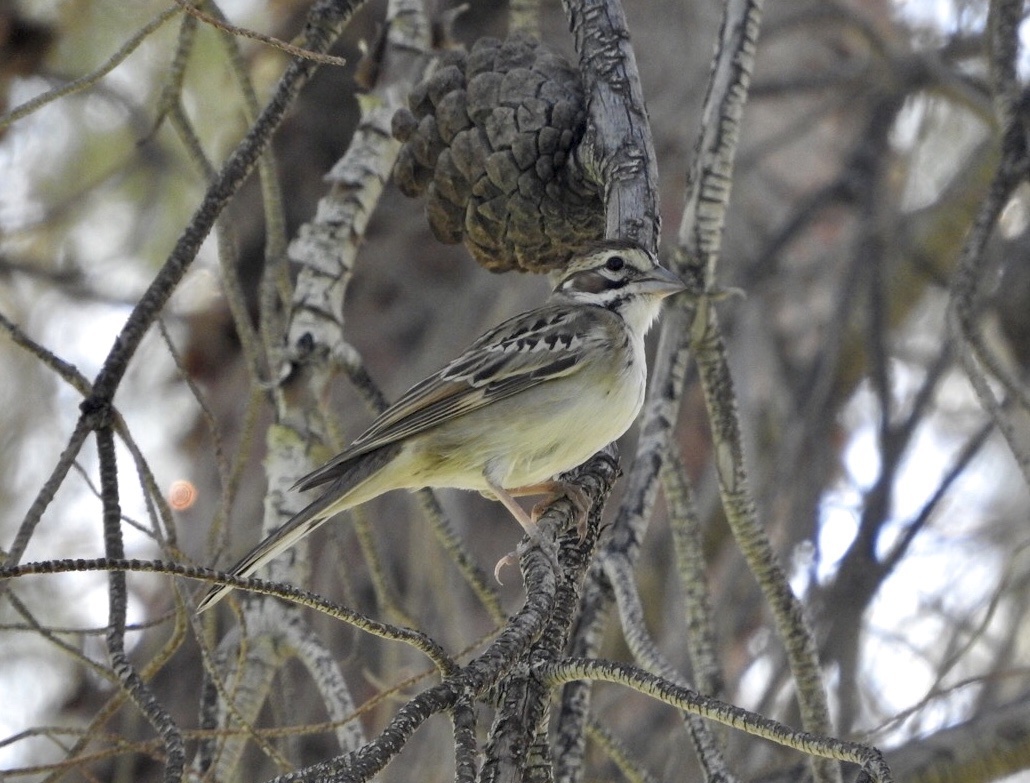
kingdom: Animalia
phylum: Chordata
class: Aves
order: Passeriformes
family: Passerellidae
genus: Chondestes
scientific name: Chondestes grammacus
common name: Lark sparrow
